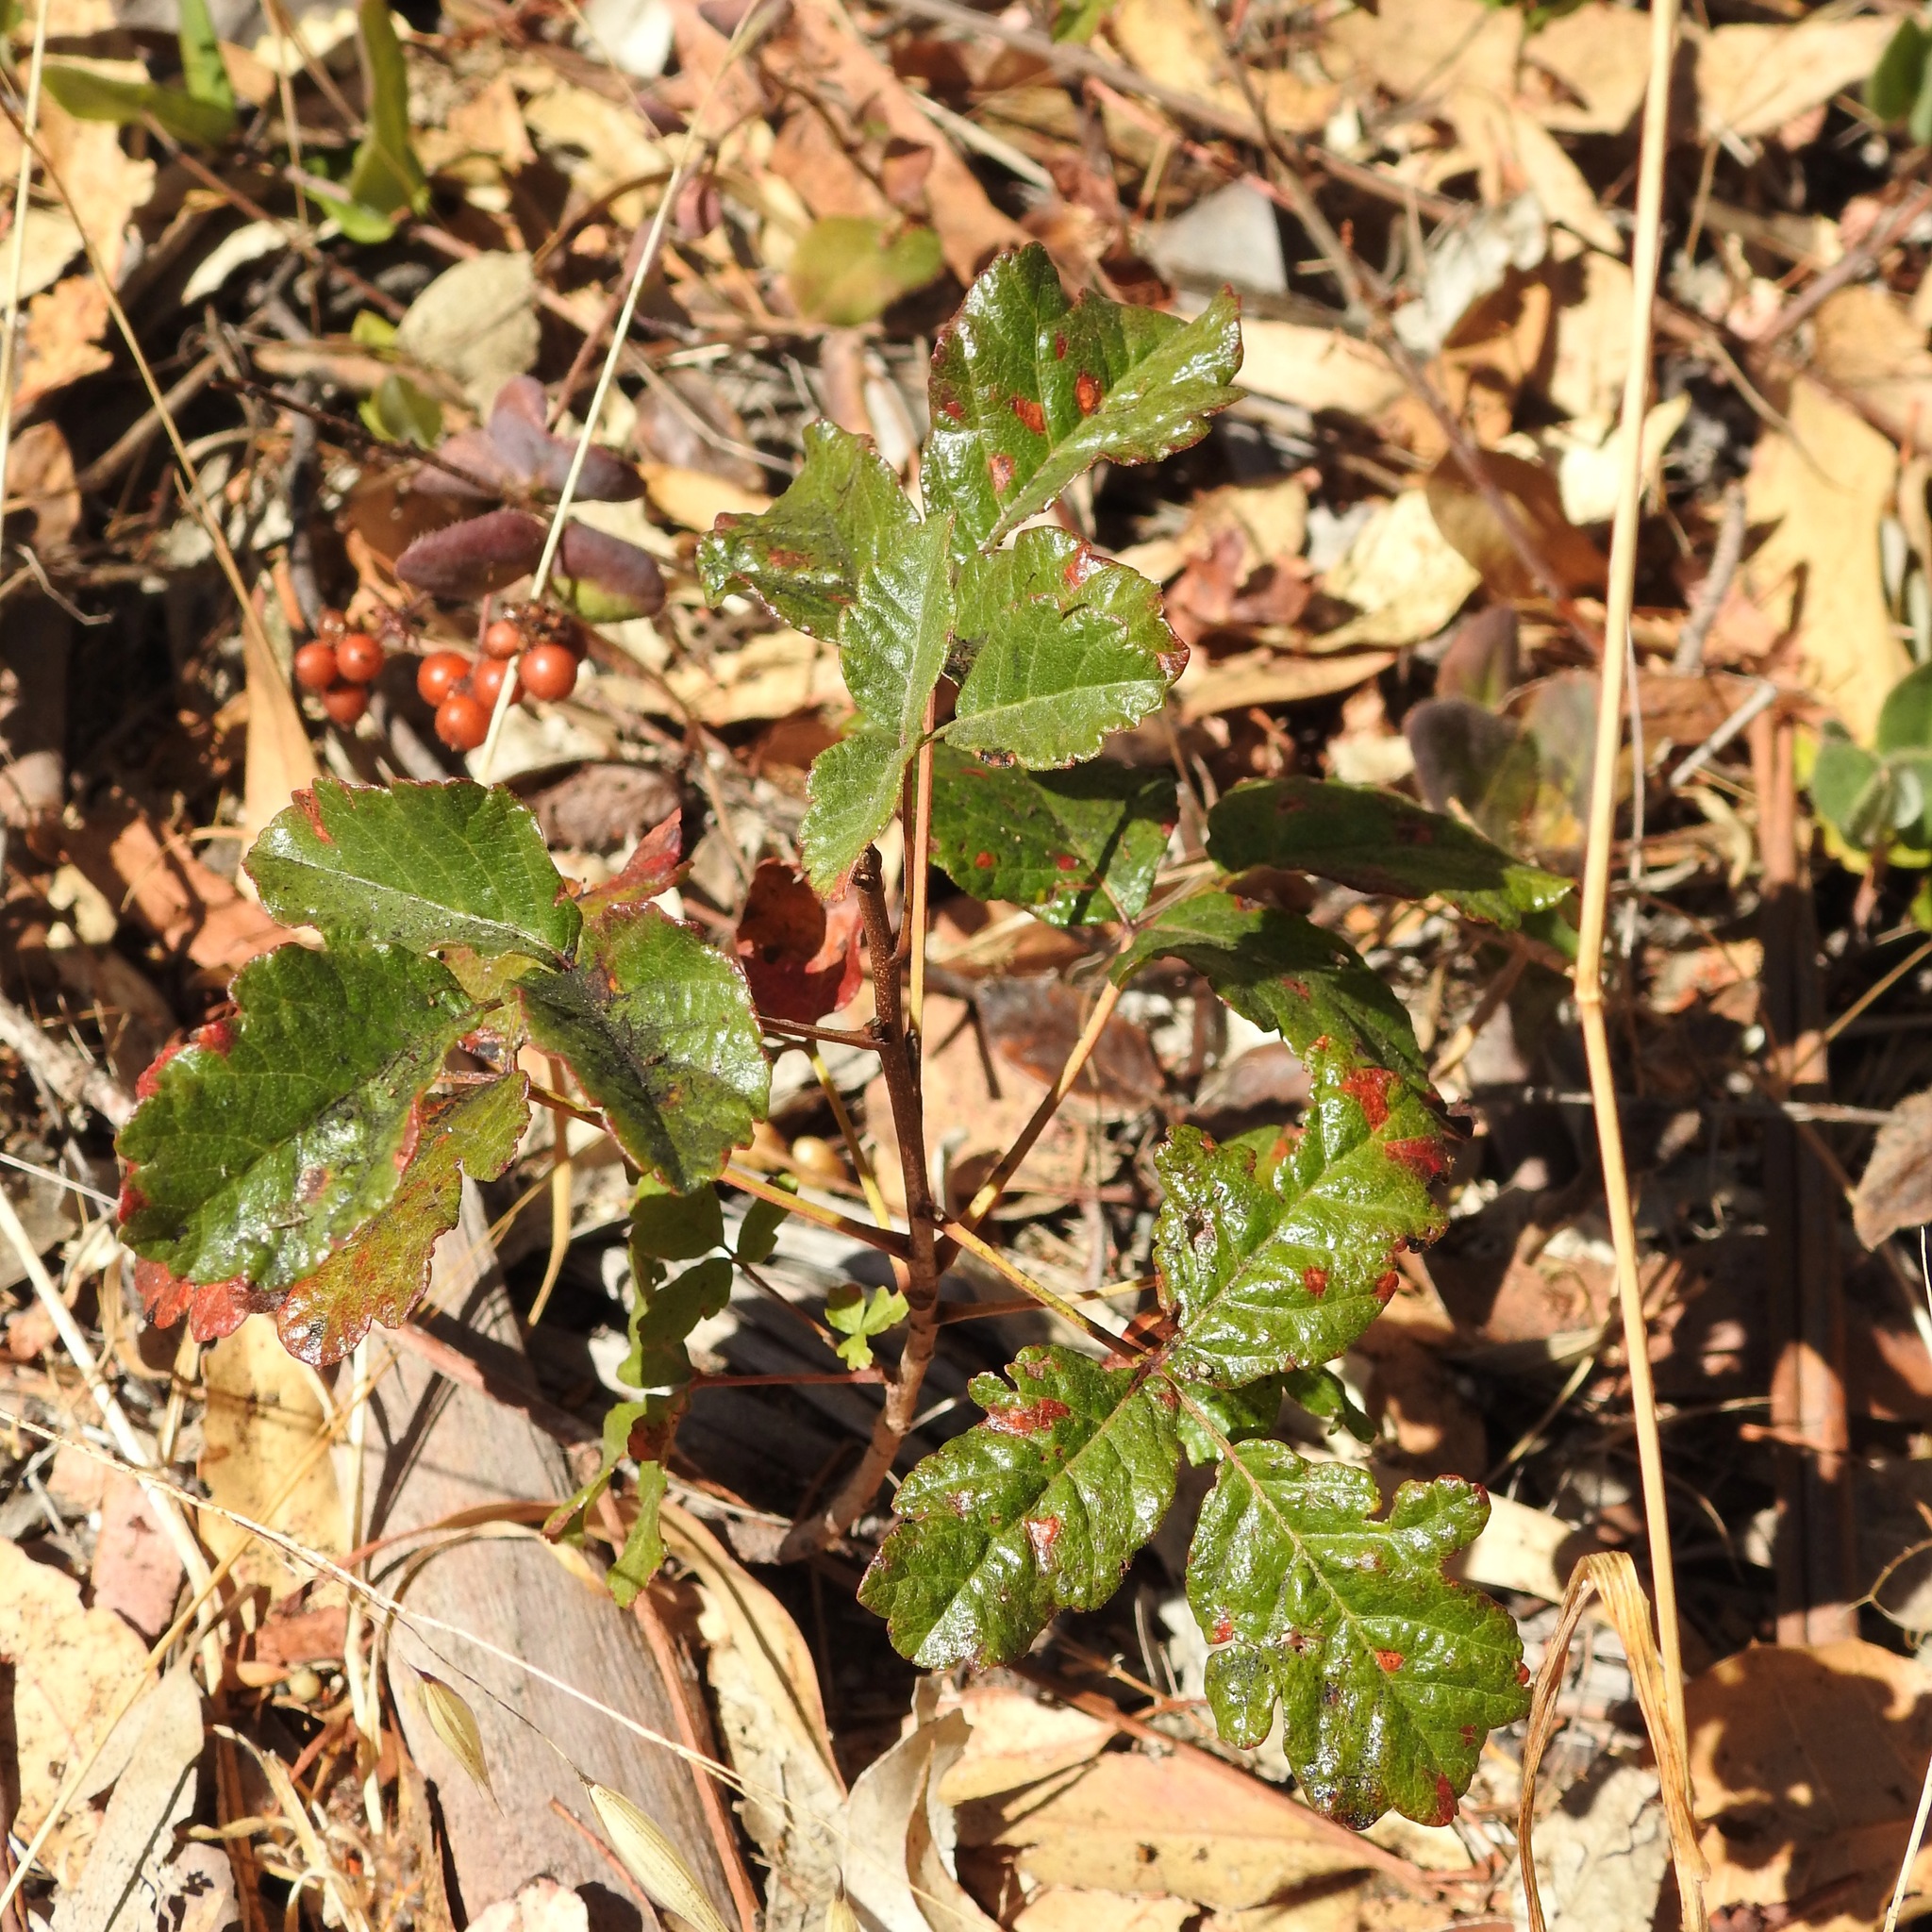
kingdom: Plantae
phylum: Tracheophyta
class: Magnoliopsida
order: Sapindales
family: Anacardiaceae
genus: Toxicodendron
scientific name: Toxicodendron diversilobum
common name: Pacific poison-oak
